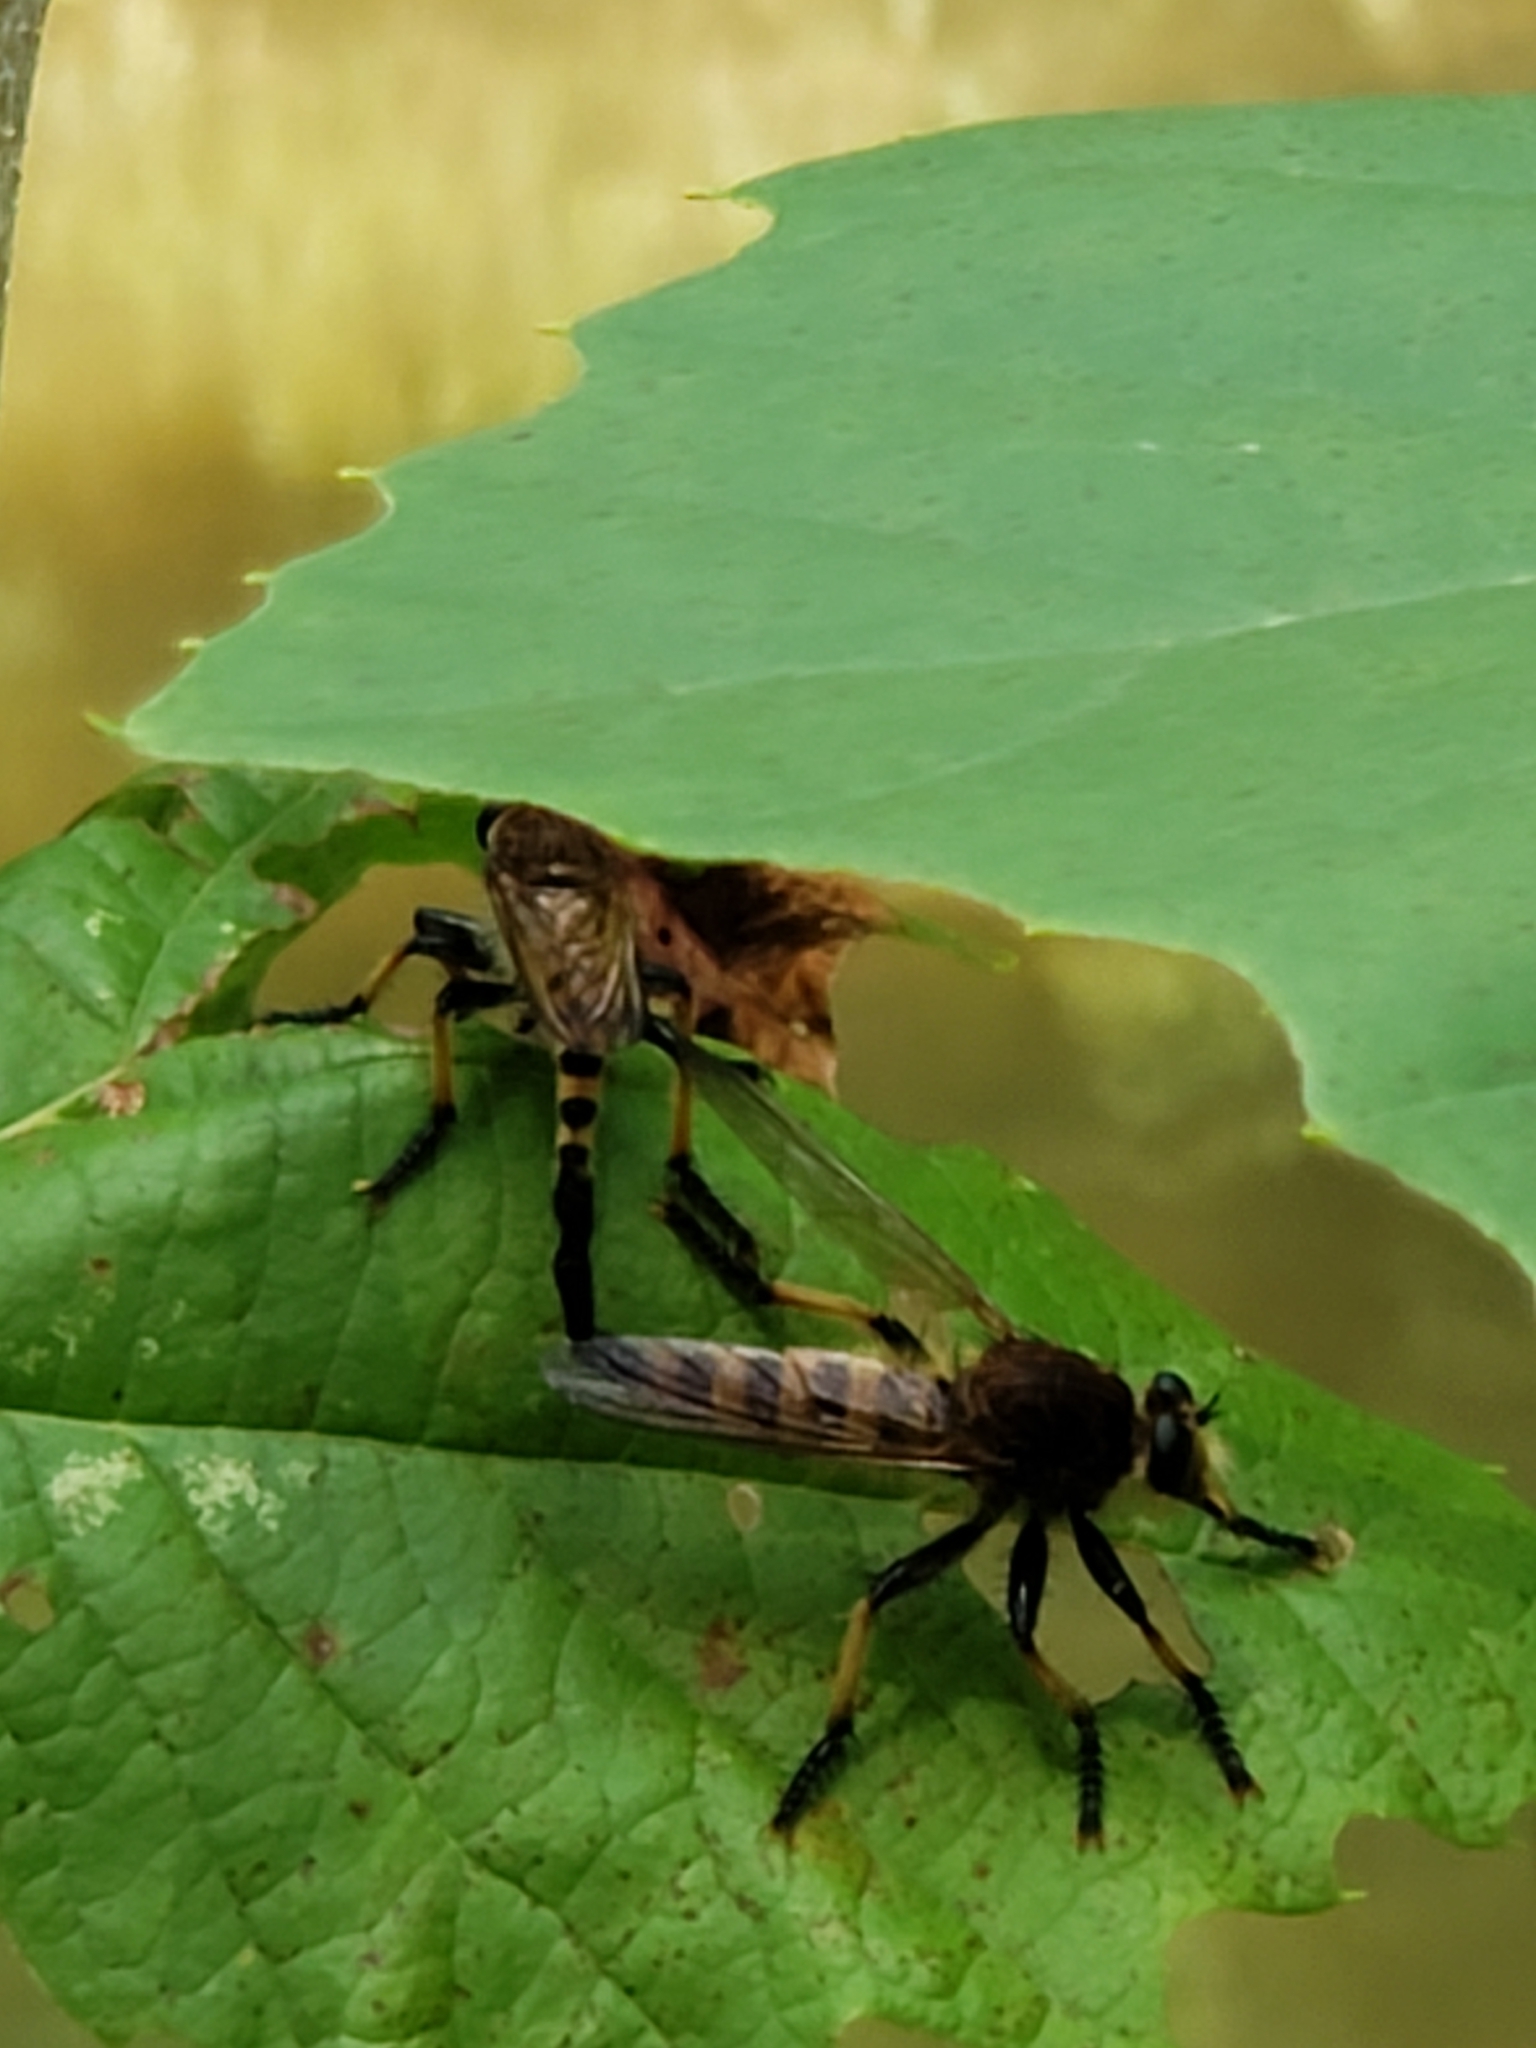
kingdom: Animalia
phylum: Arthropoda
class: Insecta
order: Diptera
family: Asilidae
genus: Promachus
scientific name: Promachus rufipes
